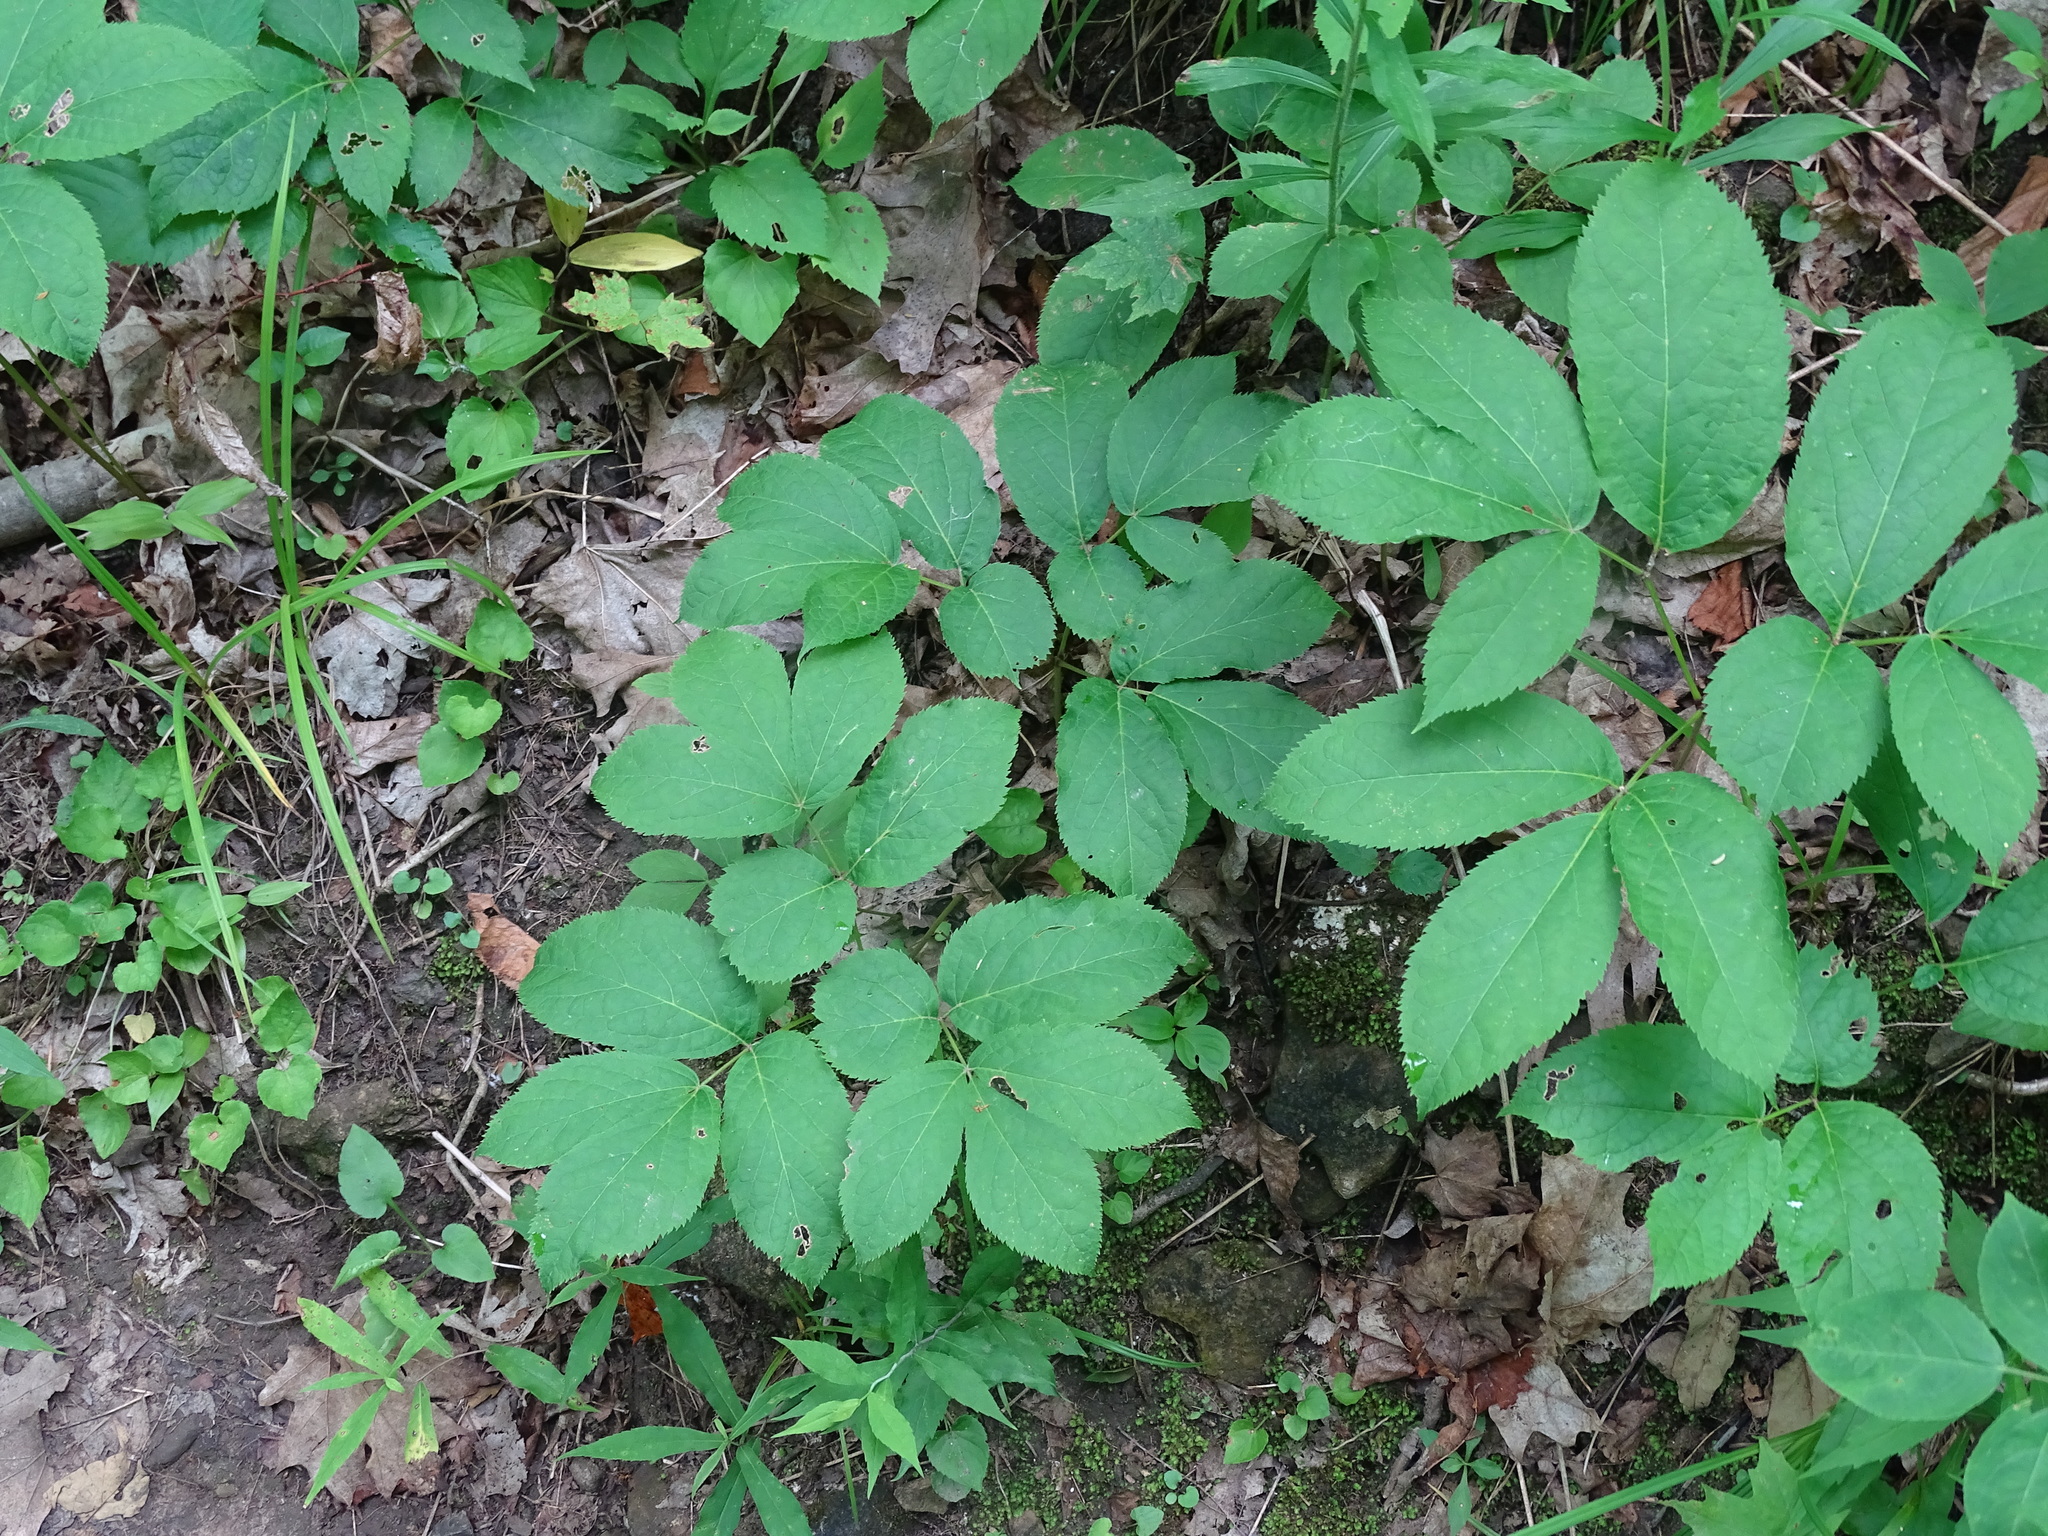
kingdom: Plantae
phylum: Tracheophyta
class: Magnoliopsida
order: Apiales
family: Araliaceae
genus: Aralia
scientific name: Aralia nudicaulis
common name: Wild sarsaparilla
